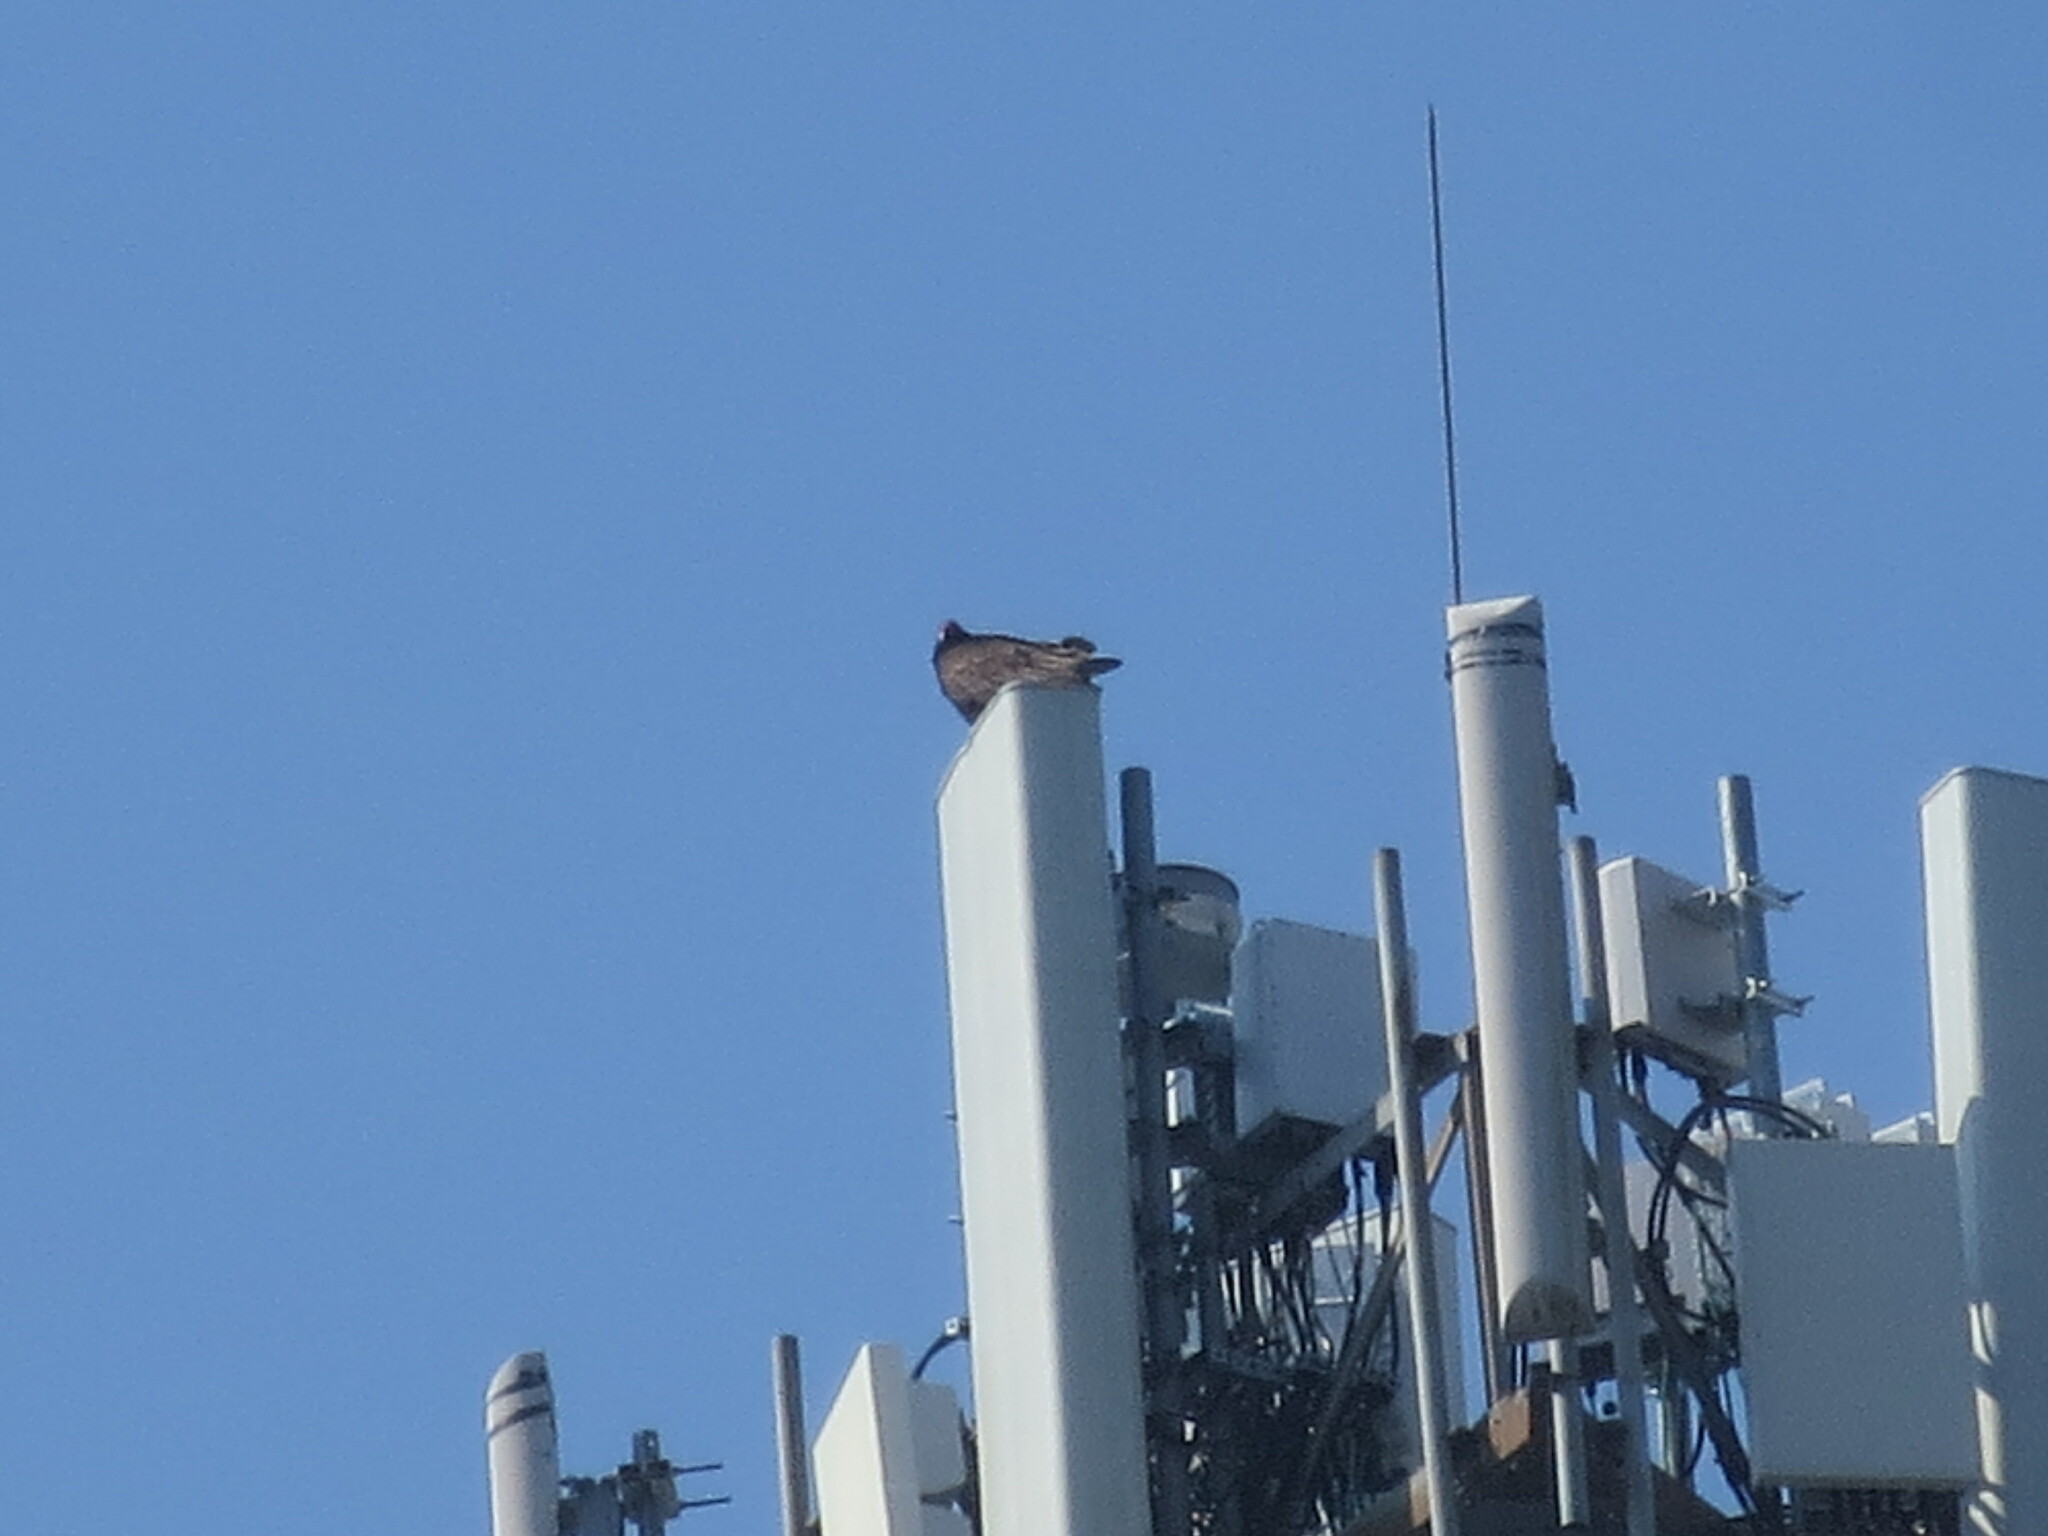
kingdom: Animalia
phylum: Chordata
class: Aves
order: Accipitriformes
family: Cathartidae
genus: Cathartes
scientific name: Cathartes aura
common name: Turkey vulture
